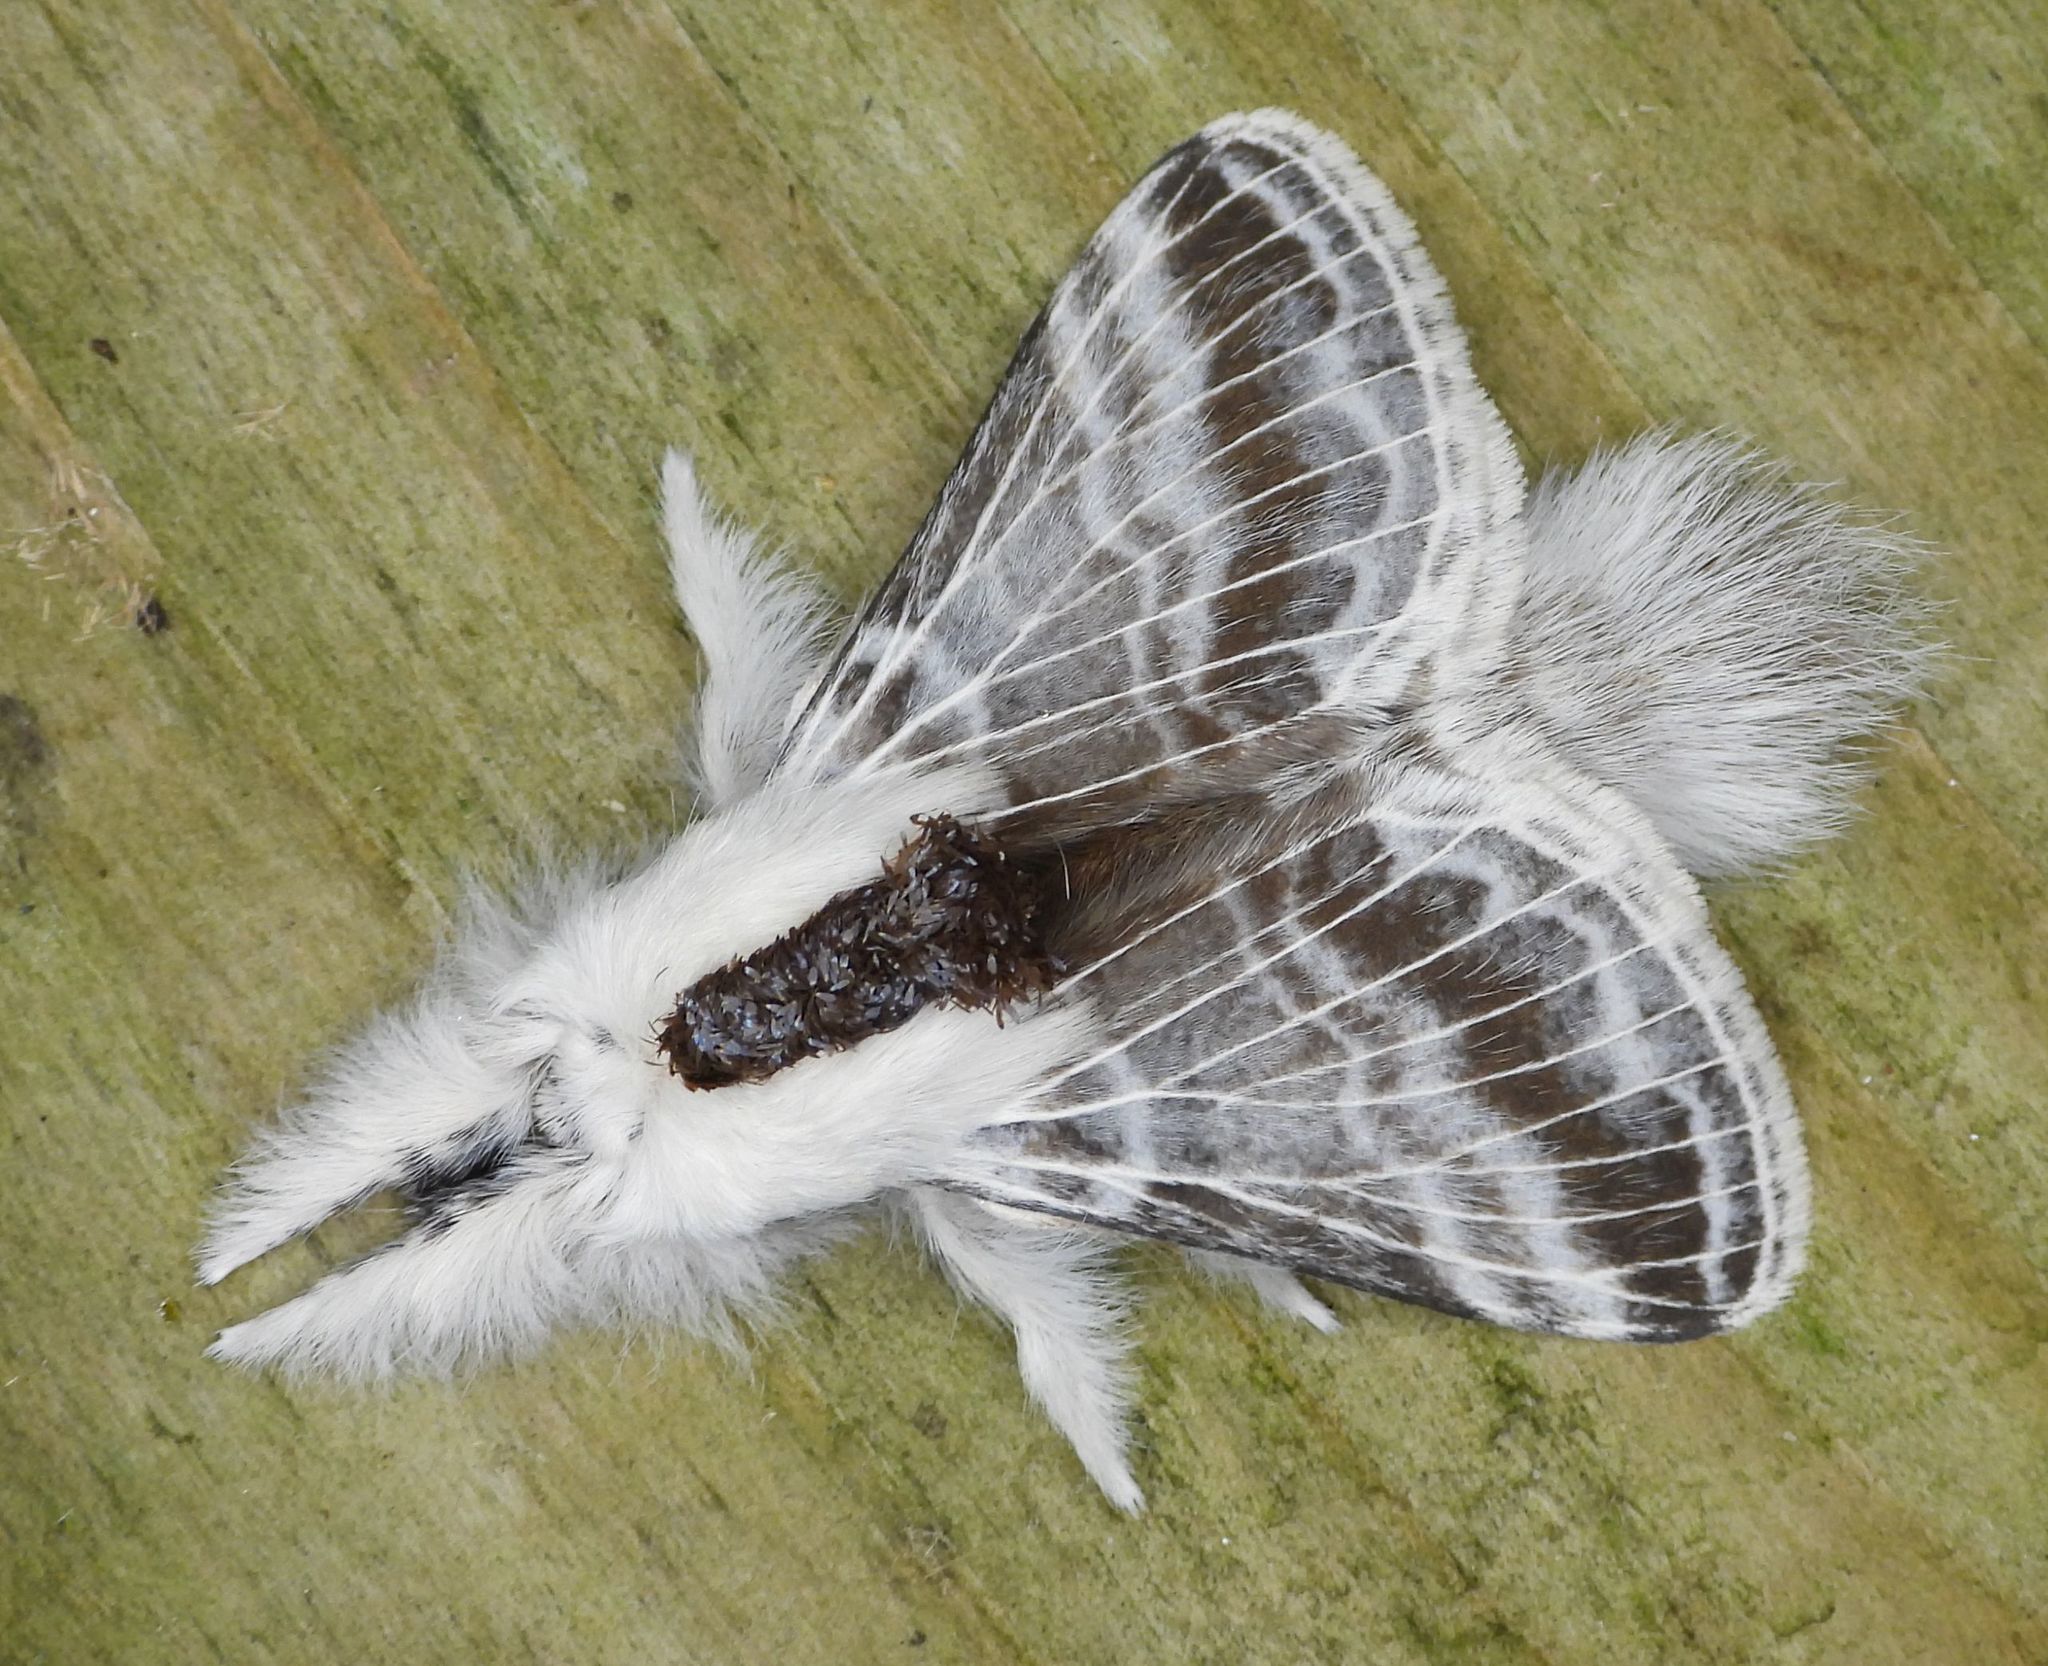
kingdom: Animalia
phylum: Arthropoda
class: Insecta
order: Lepidoptera
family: Lasiocampidae
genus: Tolype
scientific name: Tolype velleda
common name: Large tolype moth
